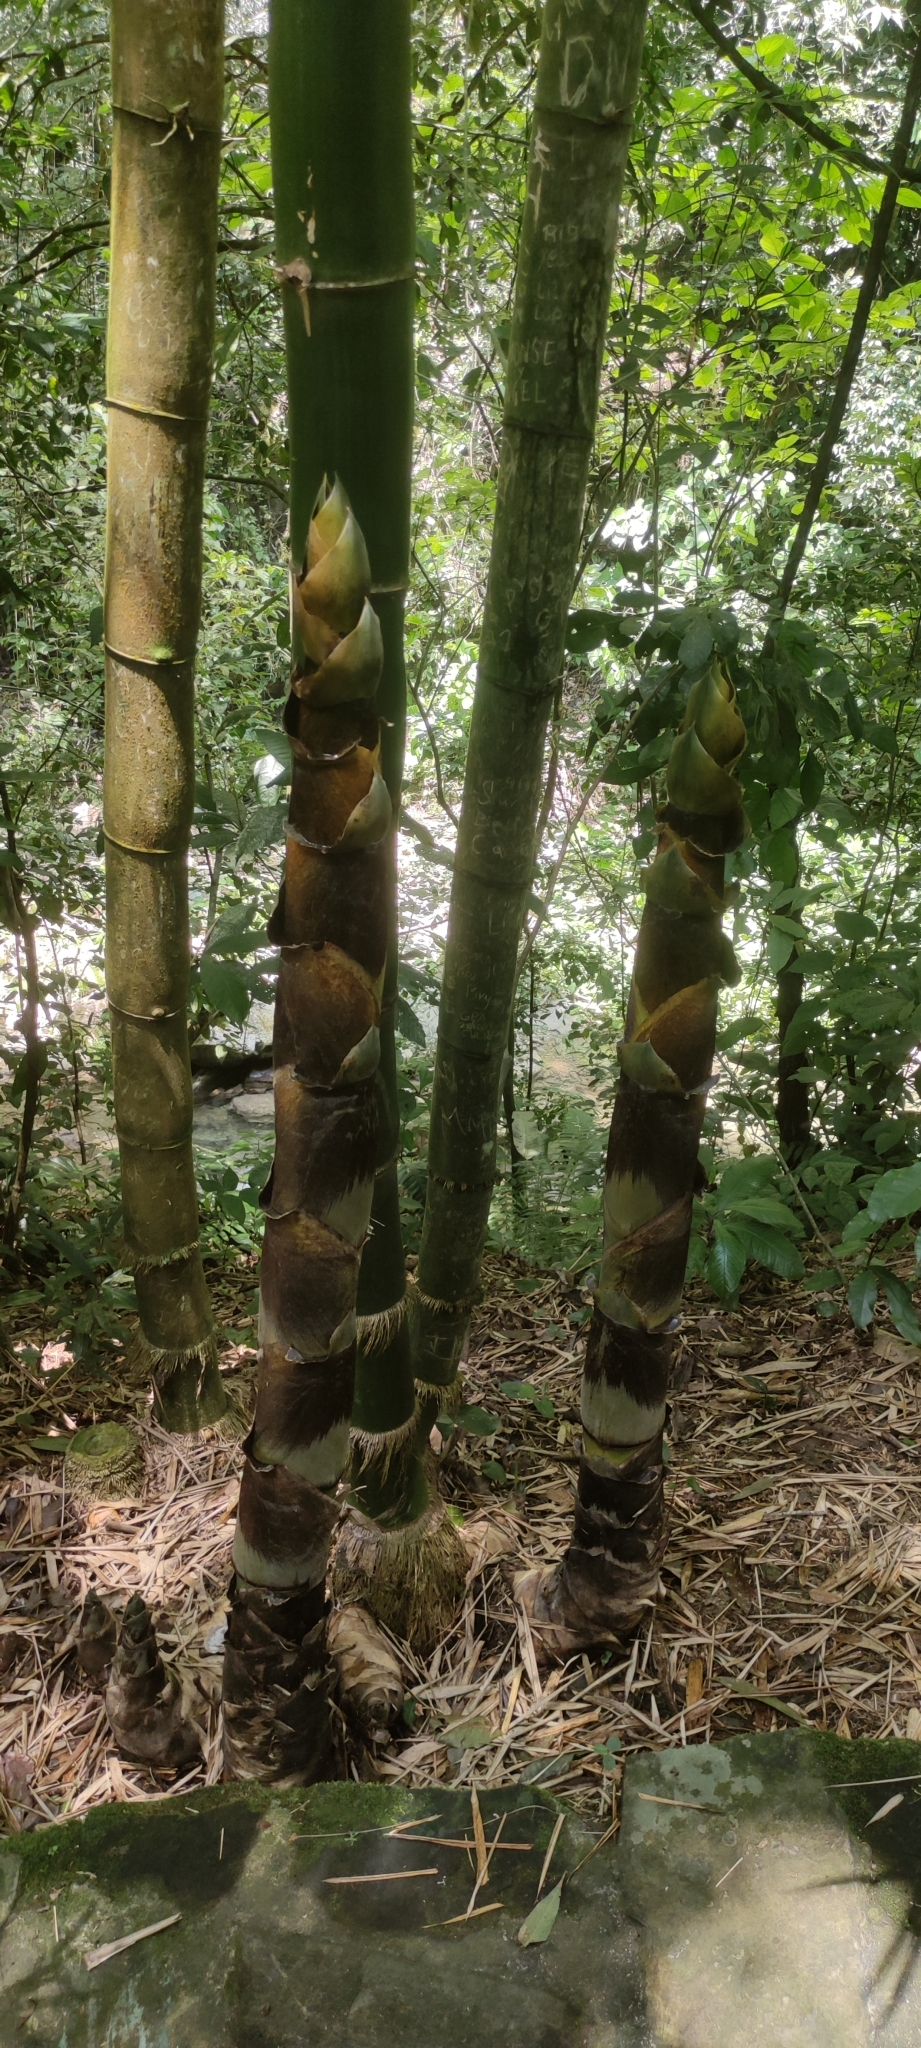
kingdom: Plantae
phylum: Tracheophyta
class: Liliopsida
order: Poales
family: Poaceae
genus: Bambusa
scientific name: Bambusa vulgaris
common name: Common bamboo
